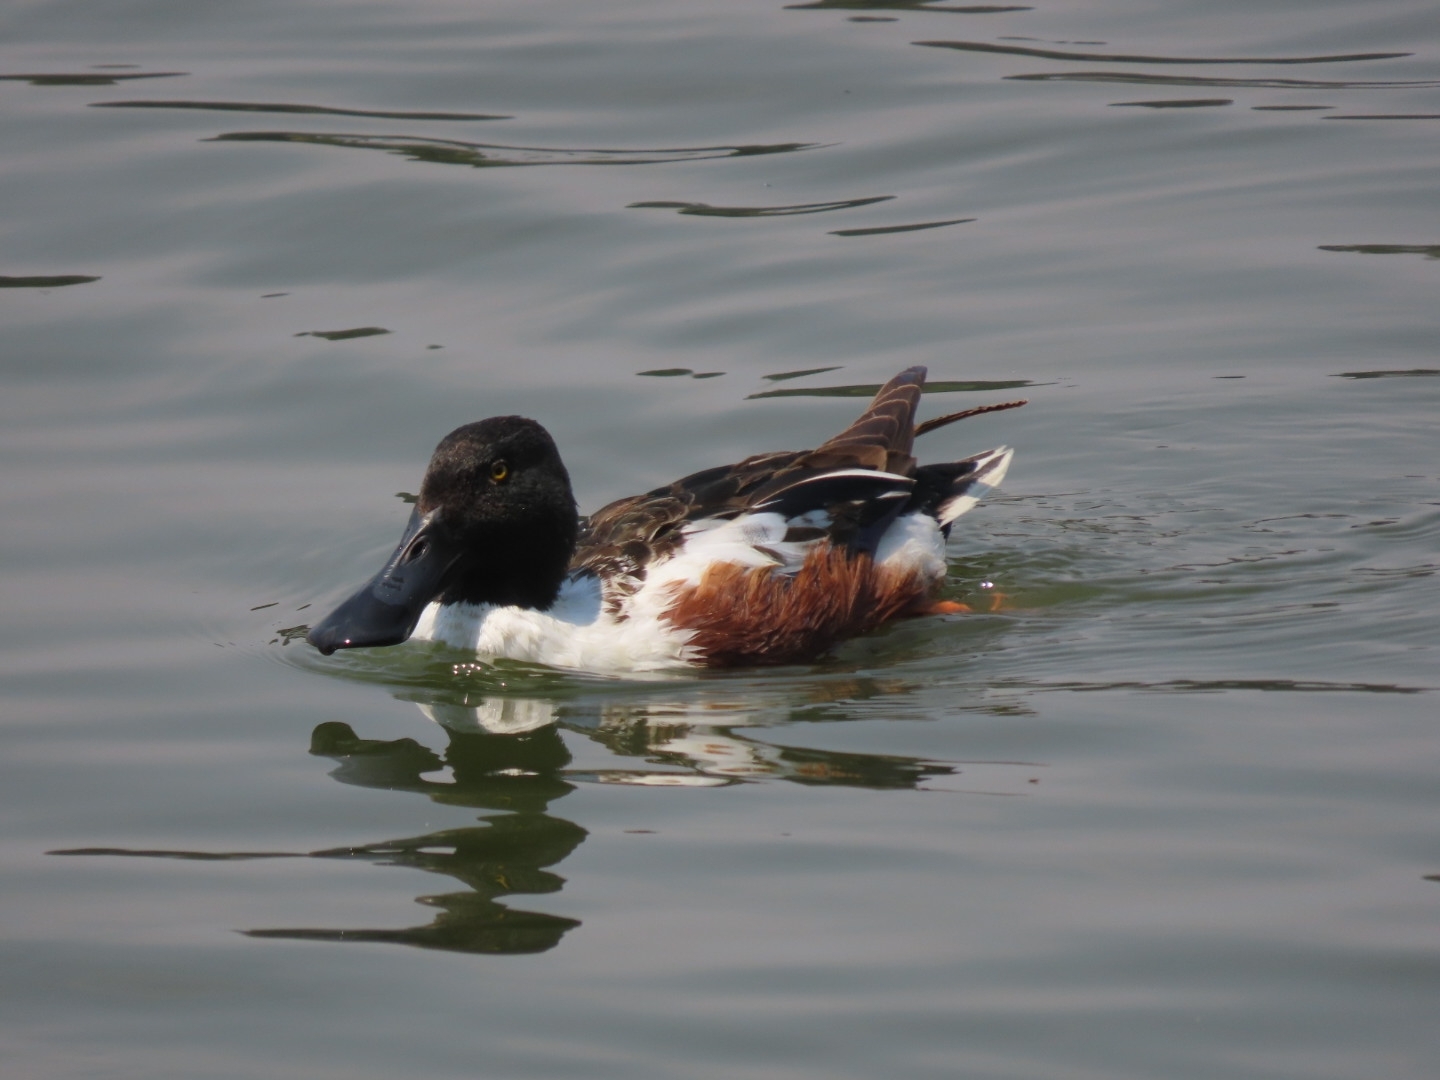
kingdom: Animalia
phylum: Chordata
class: Aves
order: Anseriformes
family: Anatidae
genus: Spatula
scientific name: Spatula clypeata
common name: Northern shoveler
